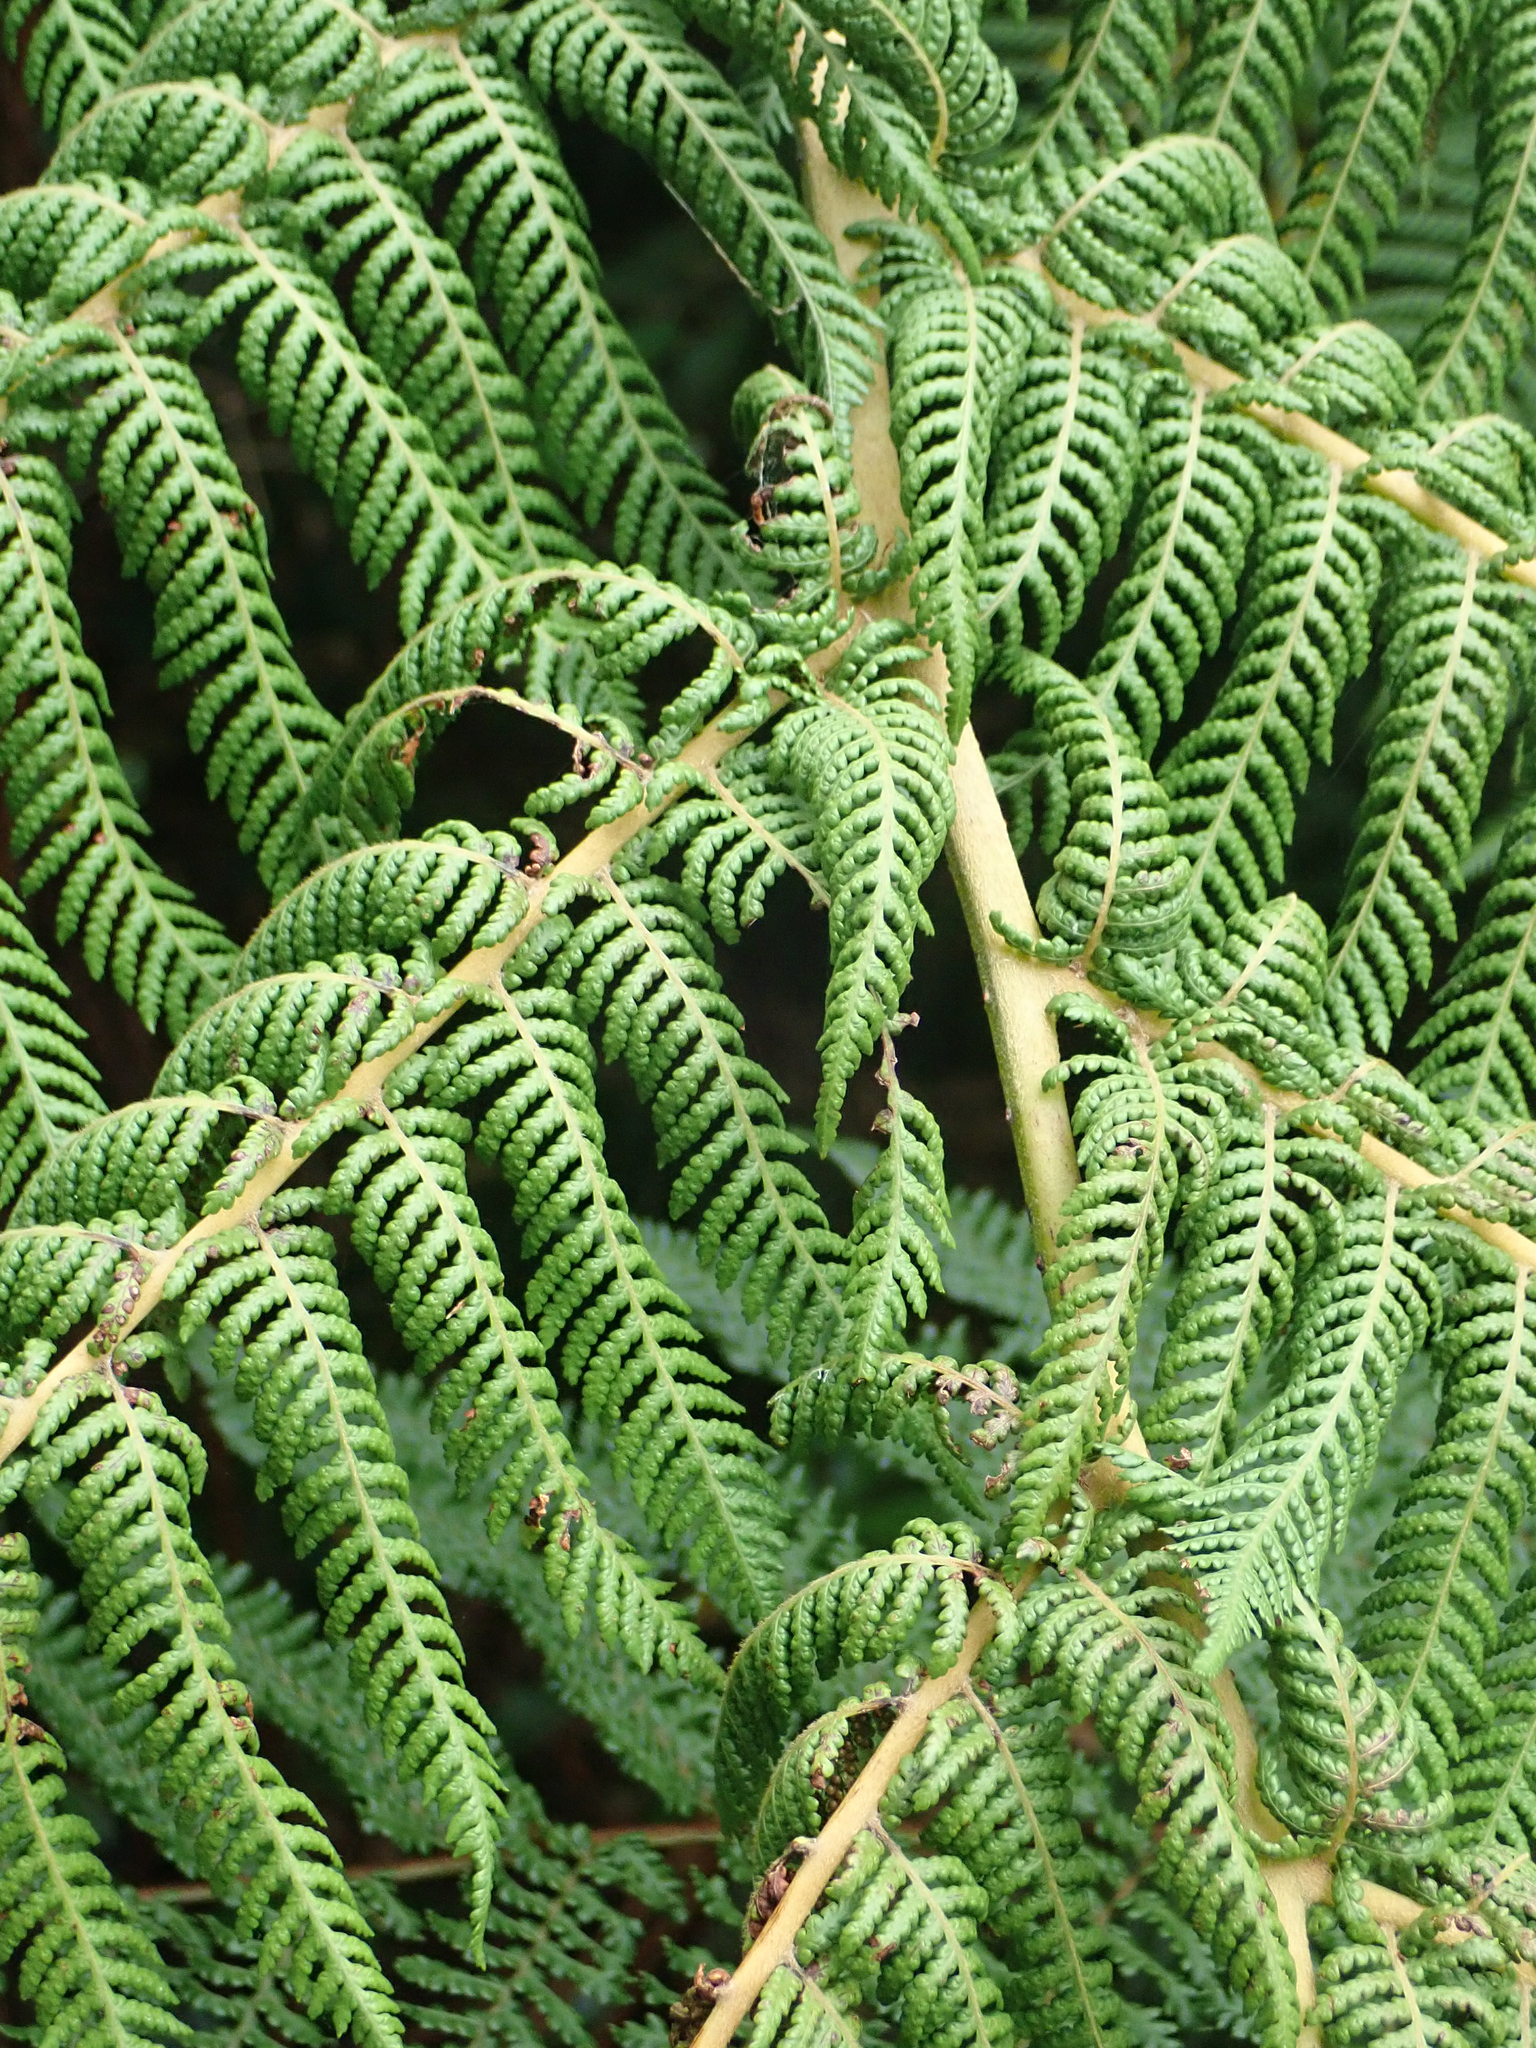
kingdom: Plantae
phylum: Tracheophyta
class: Polypodiopsida
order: Cyatheales
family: Cyatheaceae
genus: Cyathea
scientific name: Cyathea cunninghamii
